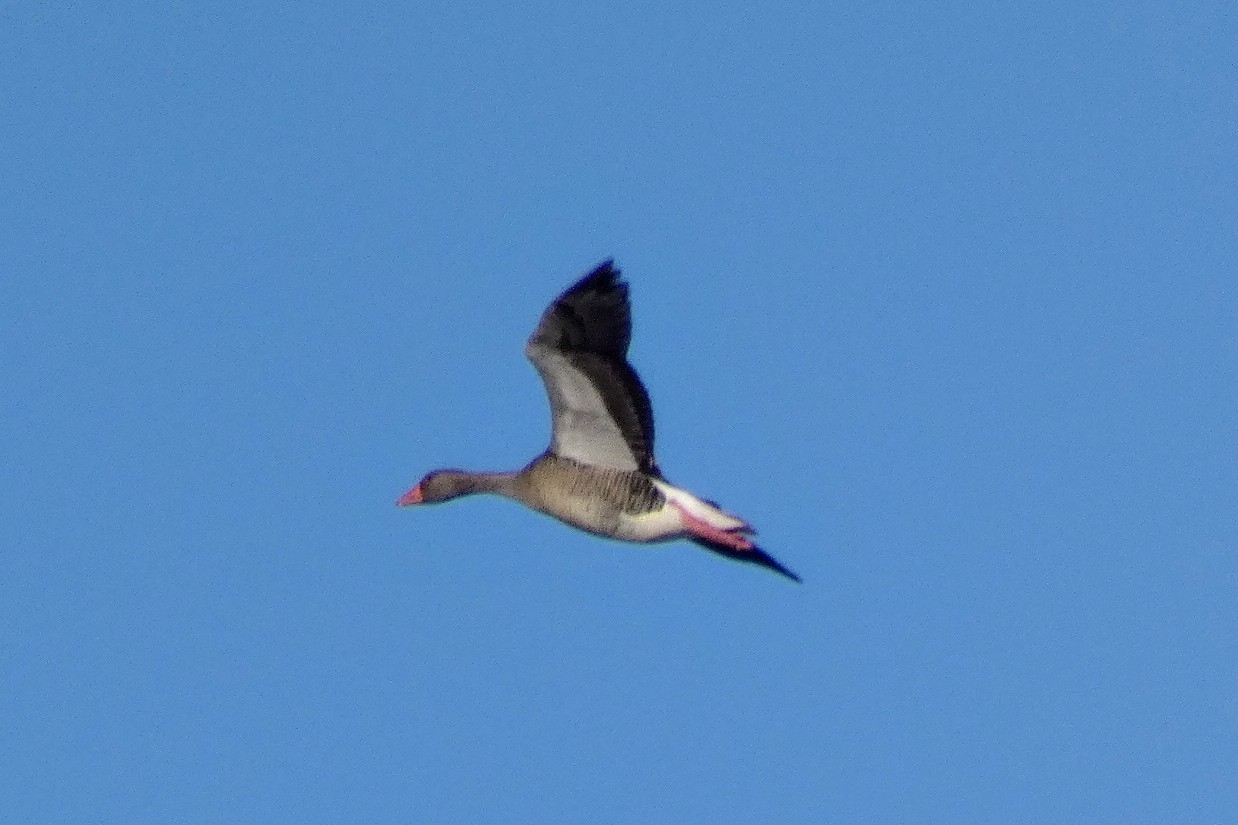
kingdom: Animalia
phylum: Chordata
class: Aves
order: Anseriformes
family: Anatidae
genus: Anser
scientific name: Anser anser
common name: Greylag goose
